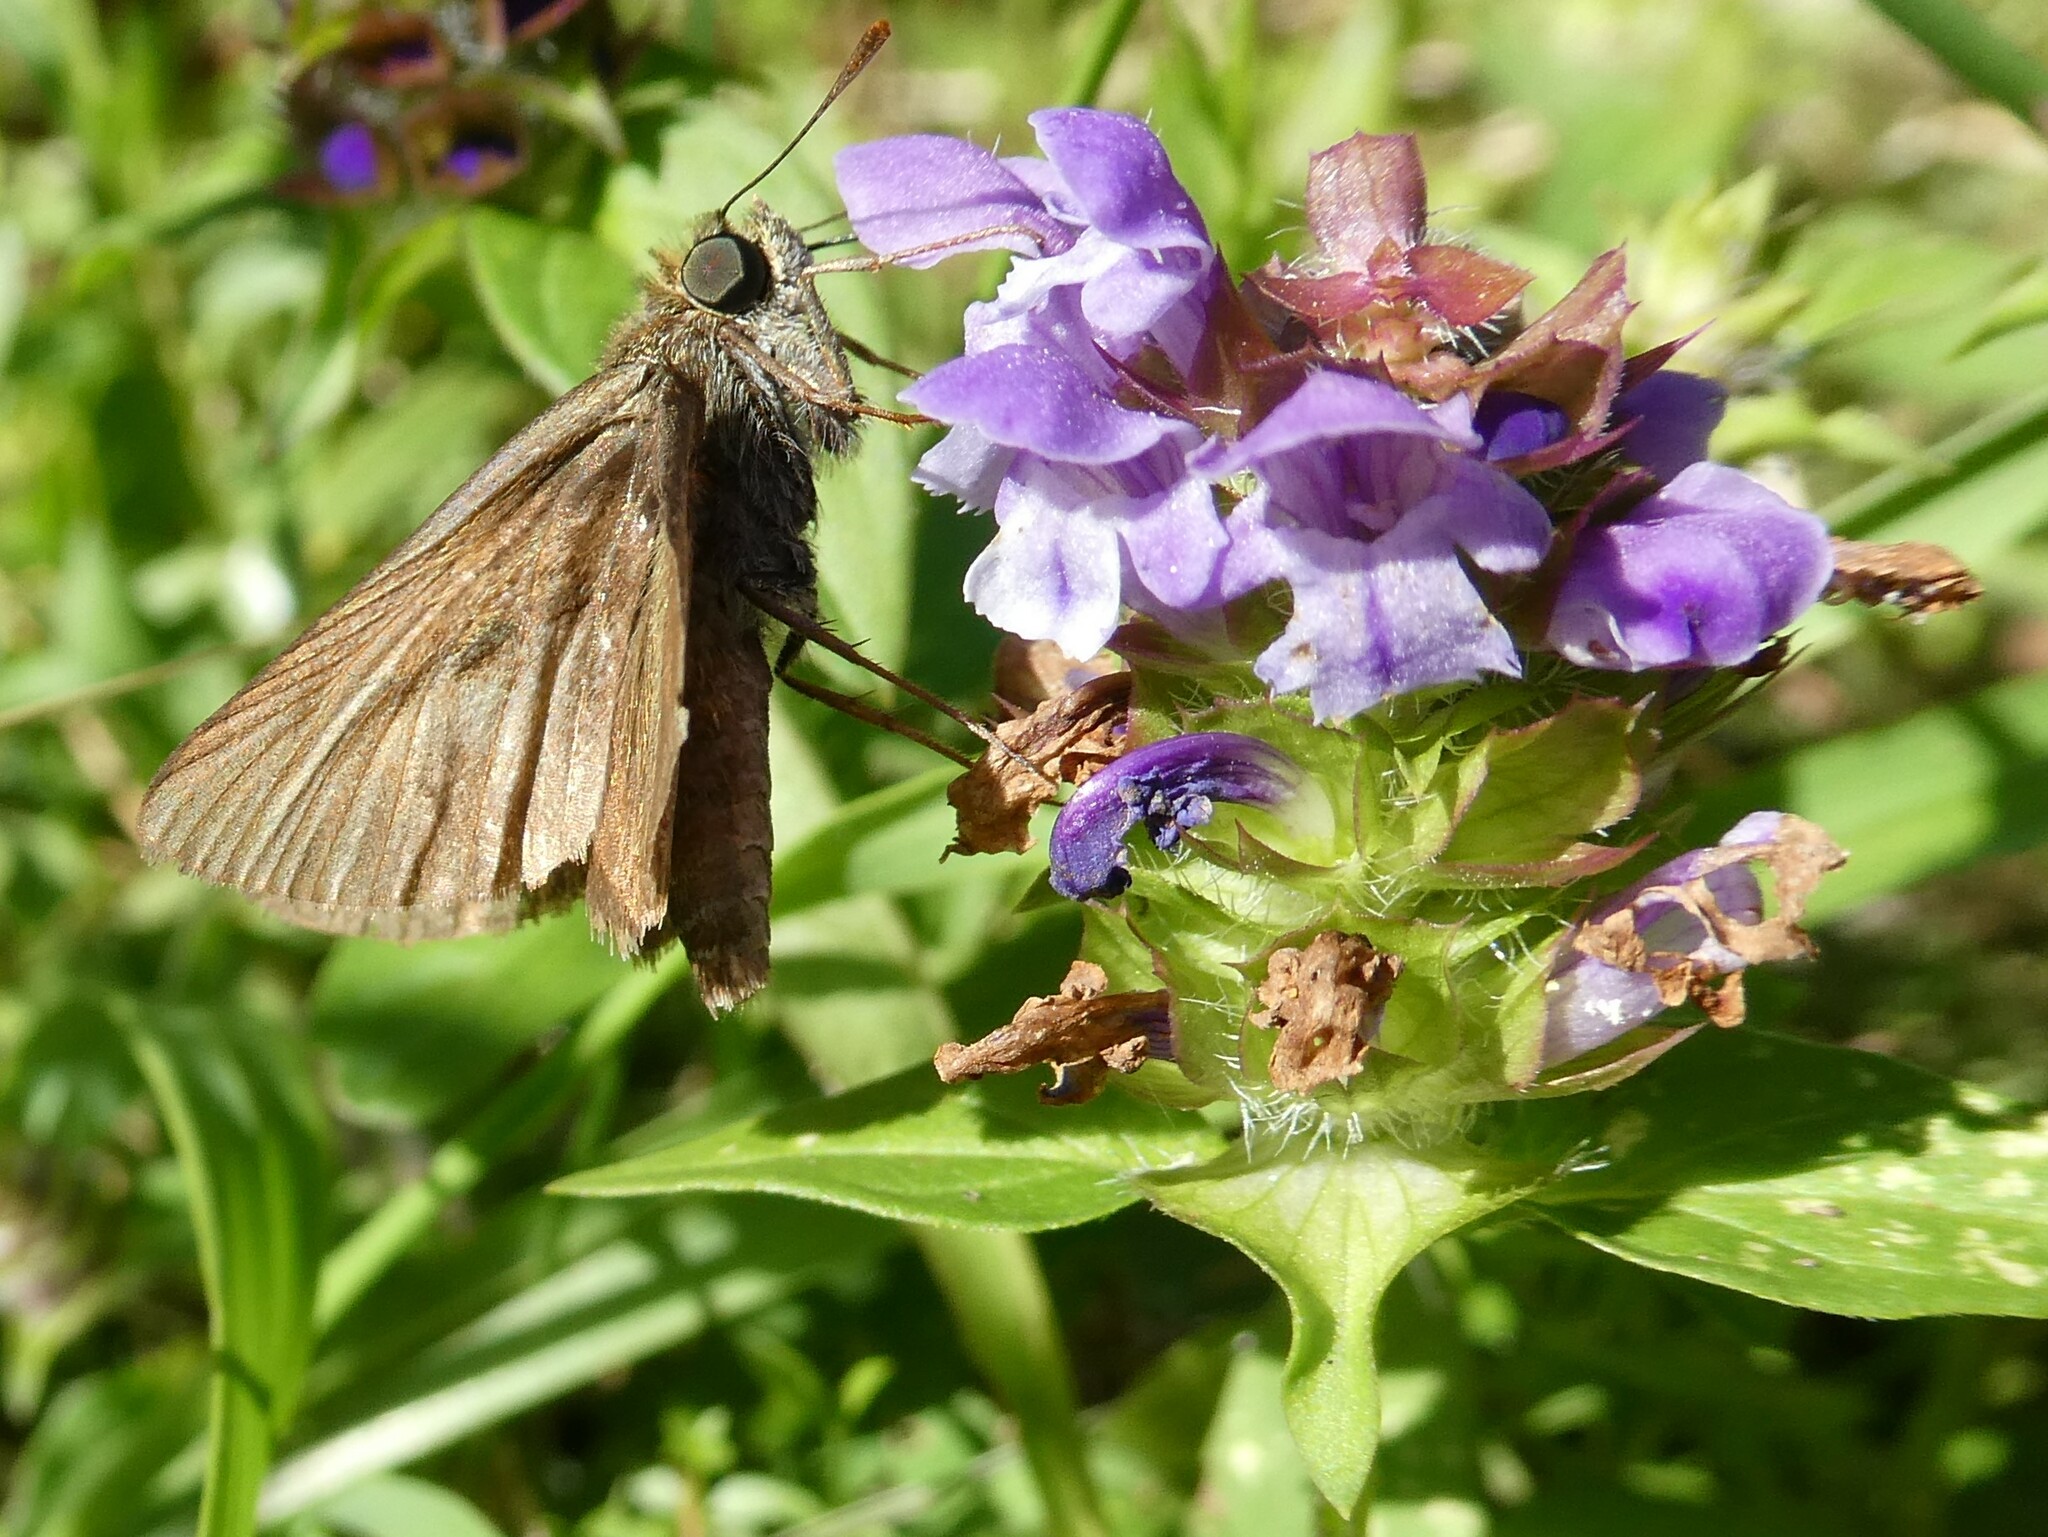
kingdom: Plantae
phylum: Tracheophyta
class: Magnoliopsida
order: Lamiales
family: Lamiaceae
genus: Prunella
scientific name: Prunella vulgaris
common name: Heal-all
